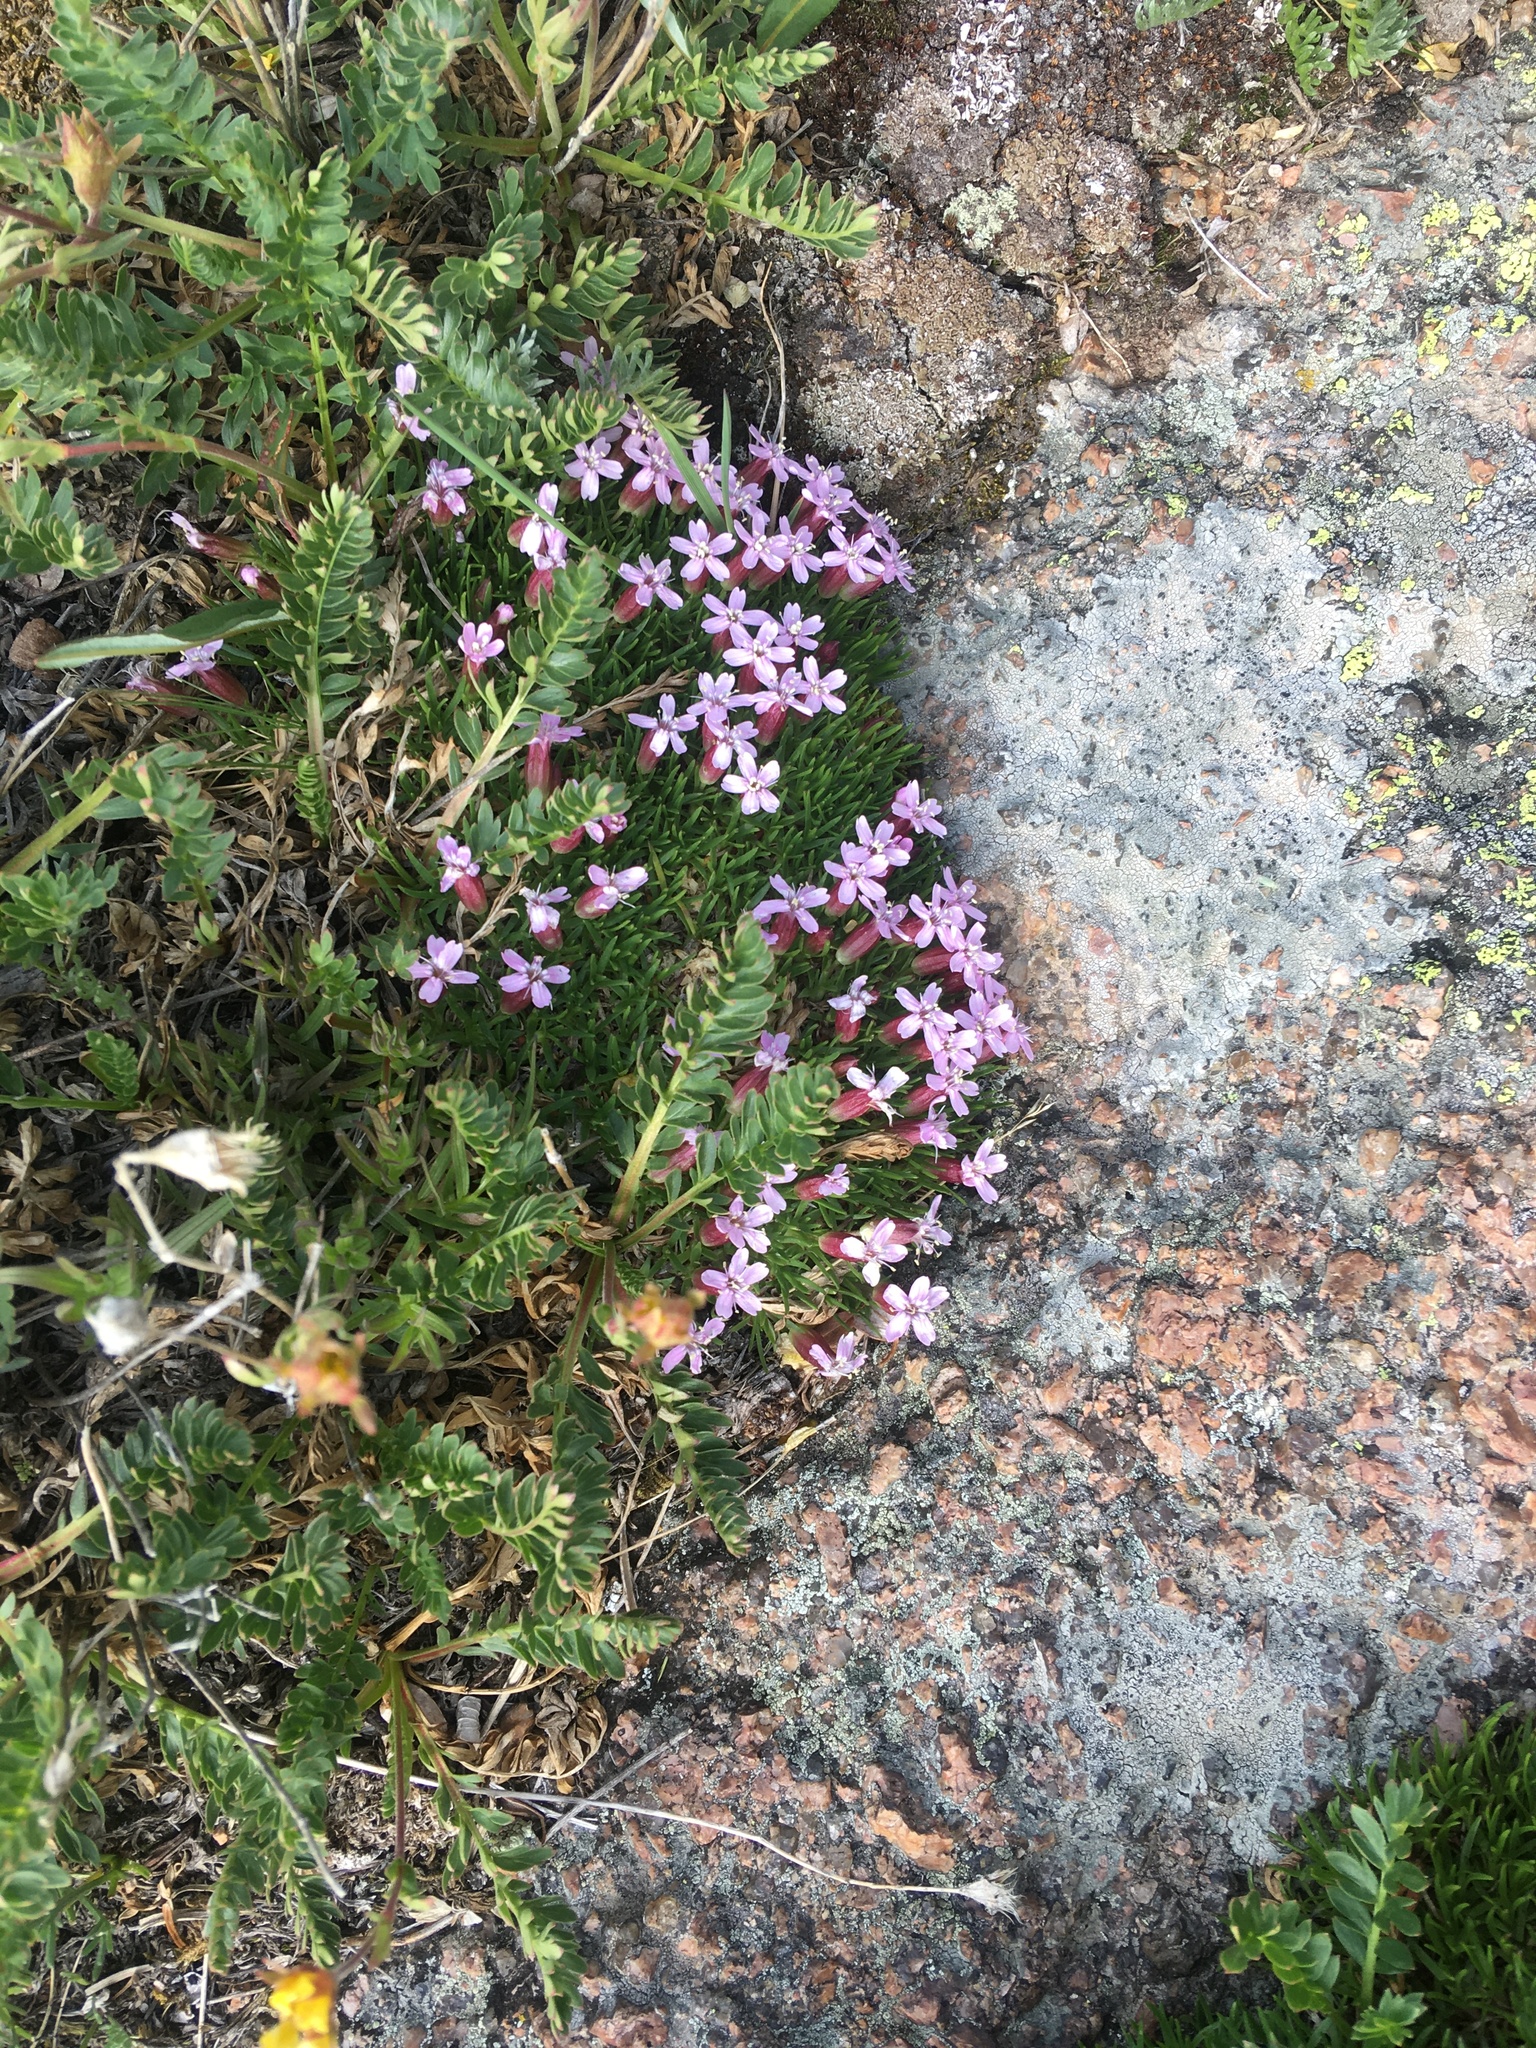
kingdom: Plantae
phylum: Tracheophyta
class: Magnoliopsida
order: Caryophyllales
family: Caryophyllaceae
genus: Silene
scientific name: Silene acaulis
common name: Moss campion
